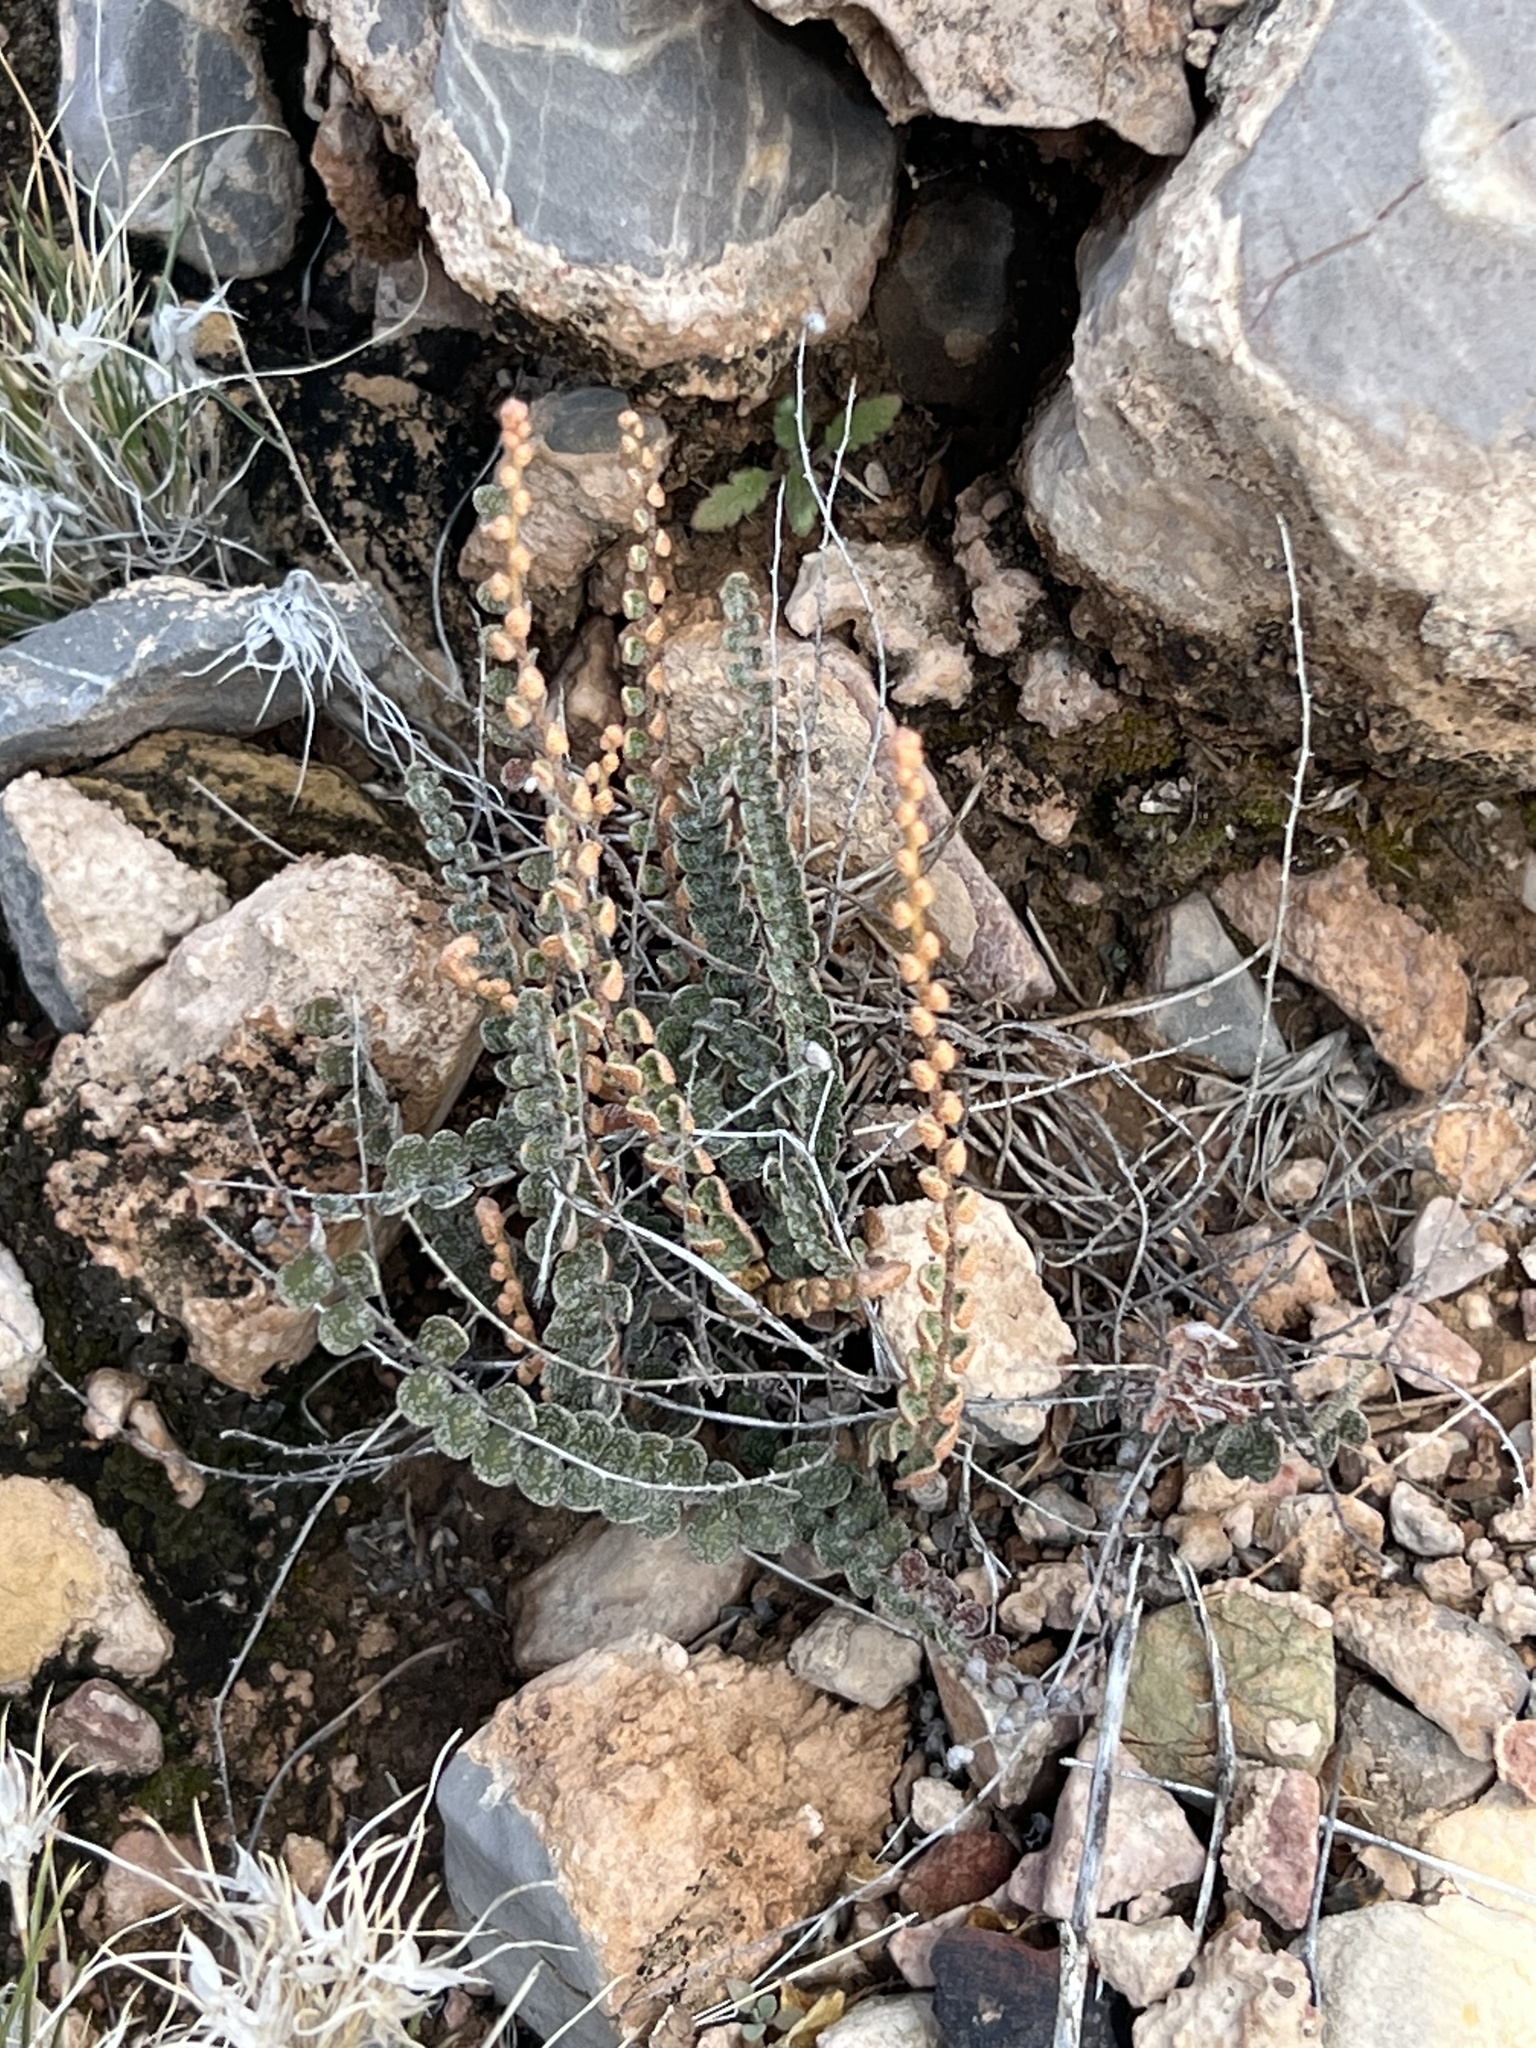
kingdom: Plantae
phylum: Tracheophyta
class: Polypodiopsida
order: Polypodiales
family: Pteridaceae
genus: Astrolepis
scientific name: Astrolepis cochisensis
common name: Scaly cloak fern
